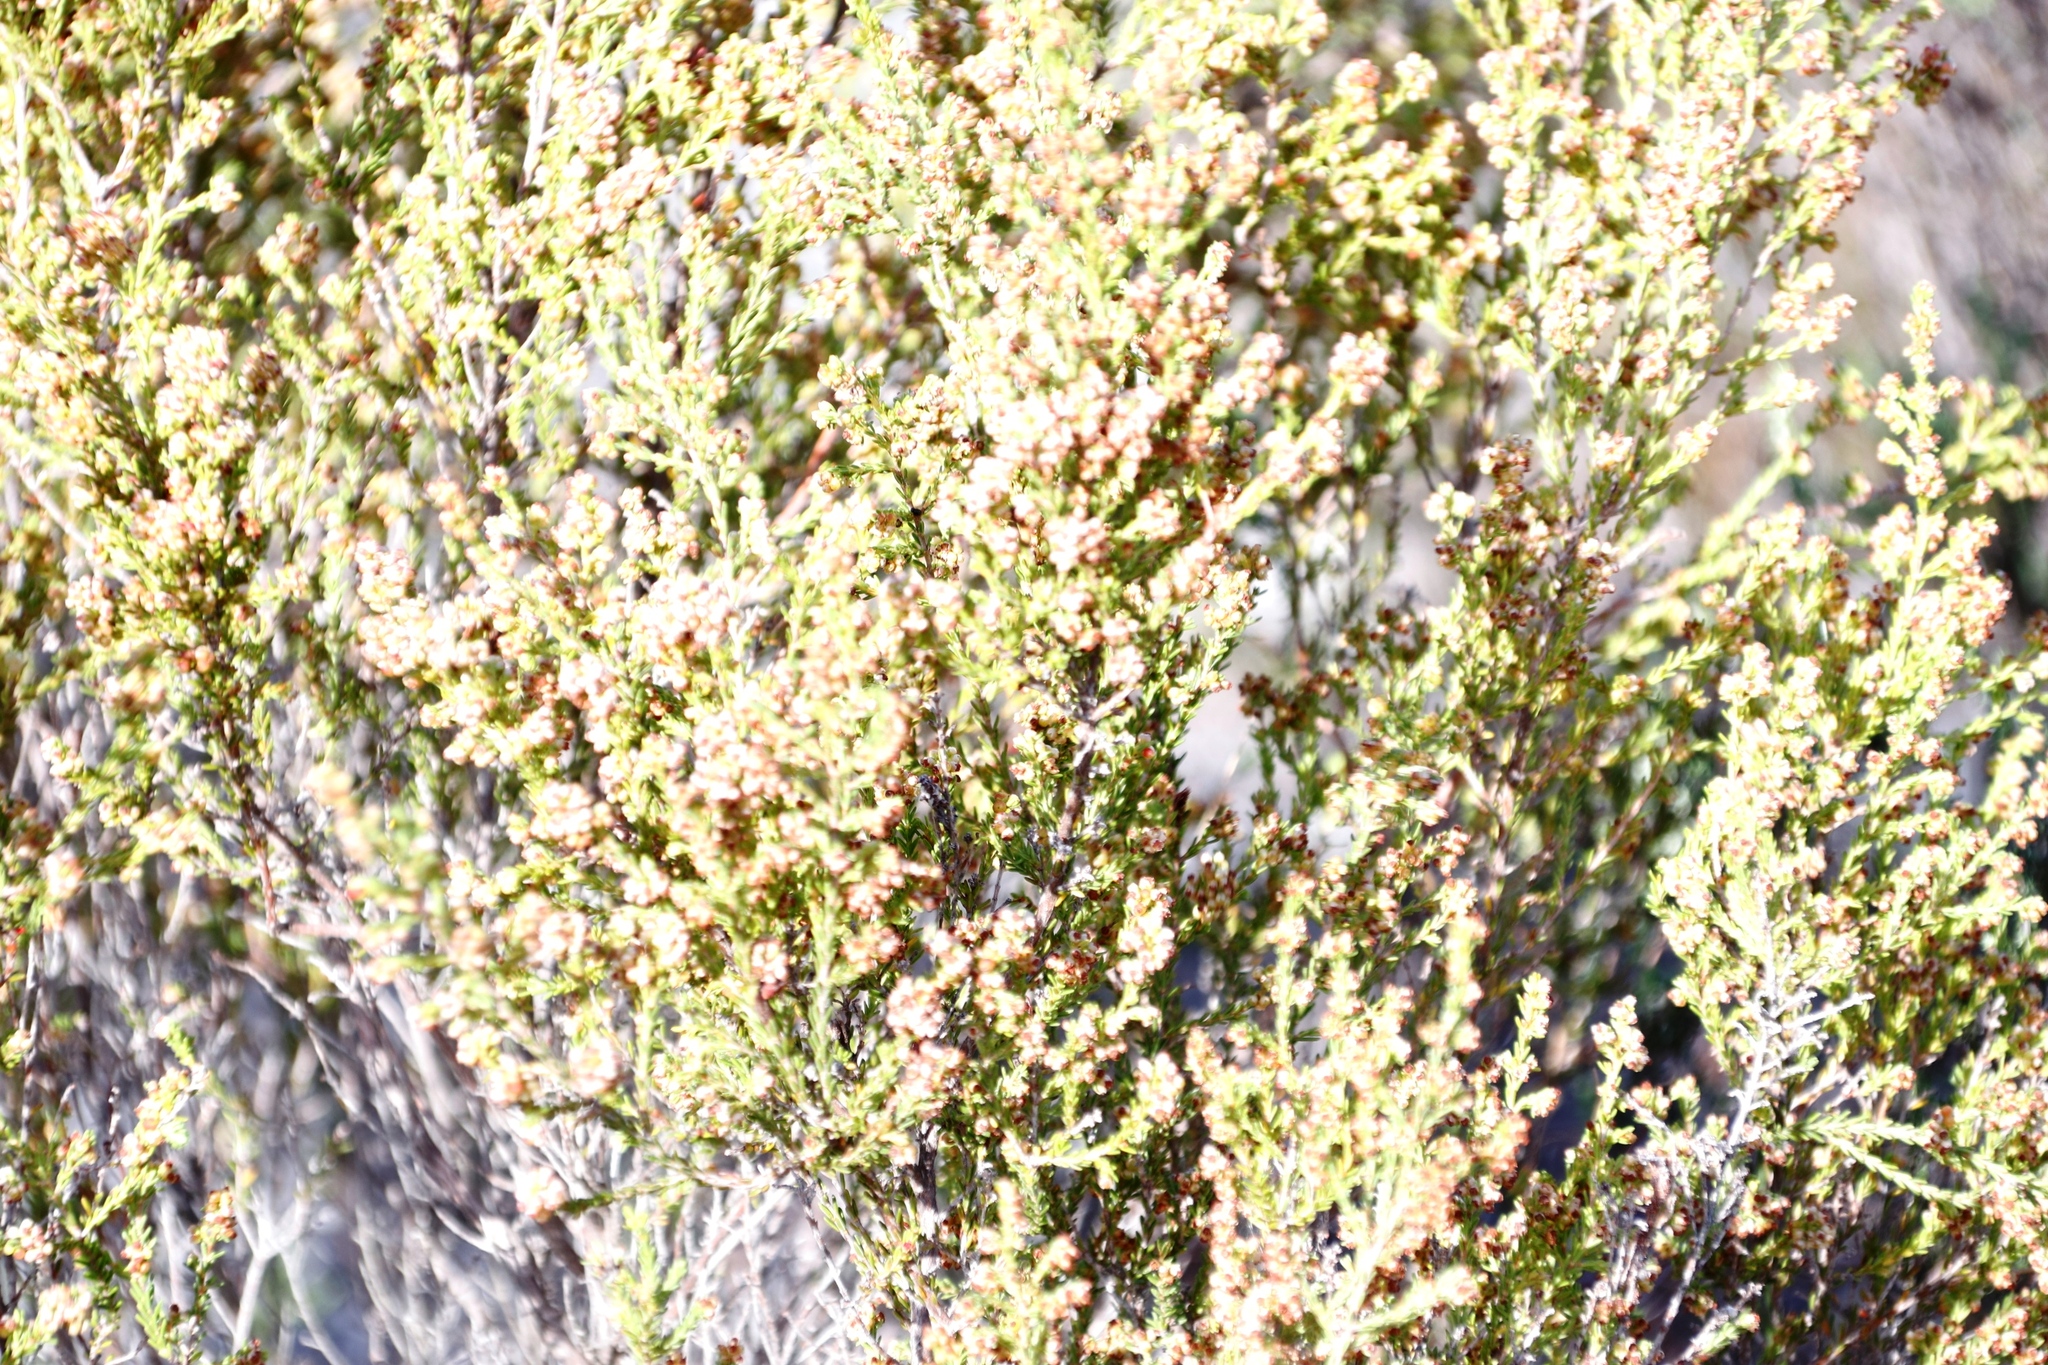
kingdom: Plantae
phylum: Tracheophyta
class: Magnoliopsida
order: Ericales
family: Ericaceae
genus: Erica
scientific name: Erica axillaris
